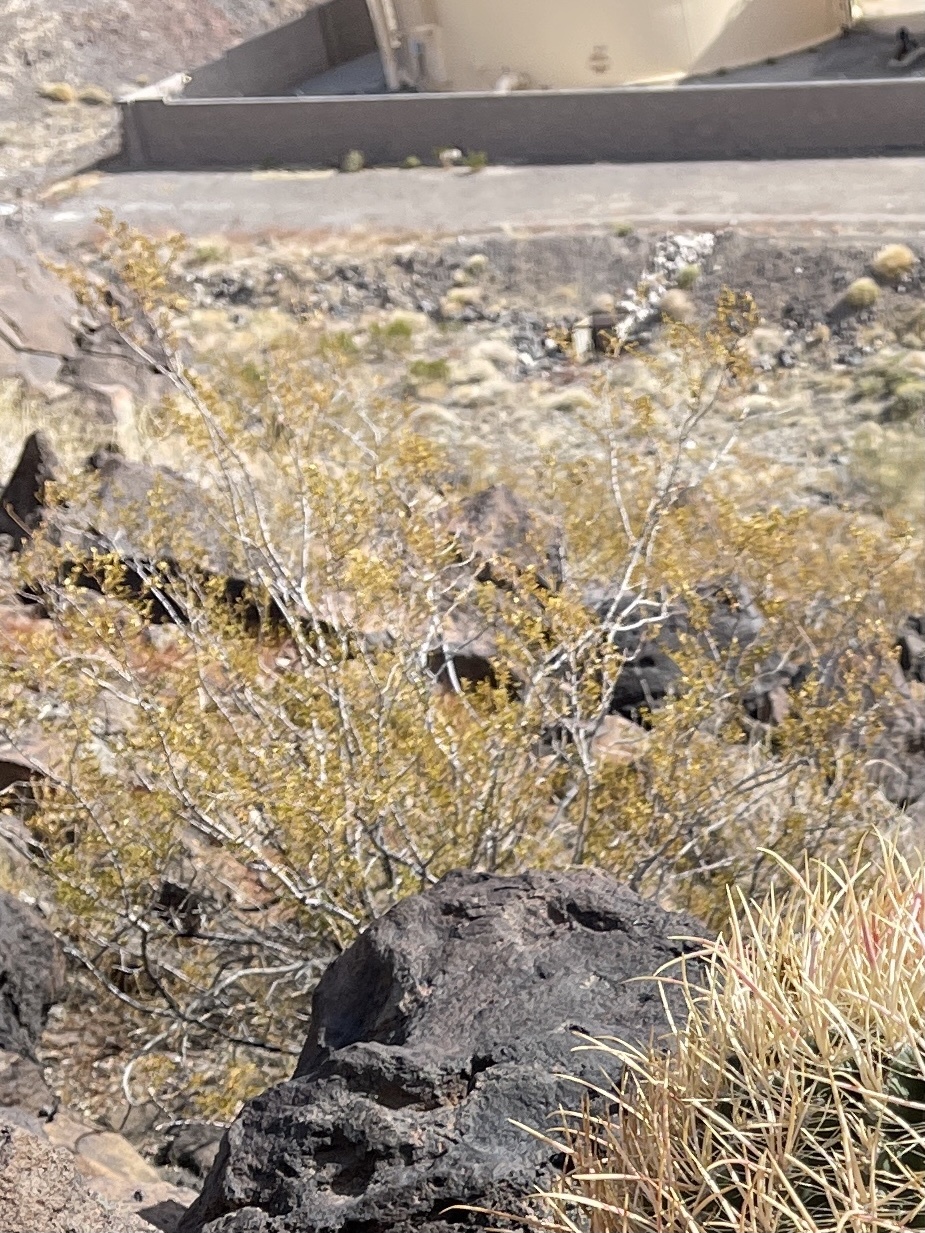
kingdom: Plantae
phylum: Tracheophyta
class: Magnoliopsida
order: Zygophyllales
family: Zygophyllaceae
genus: Larrea
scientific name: Larrea tridentata
